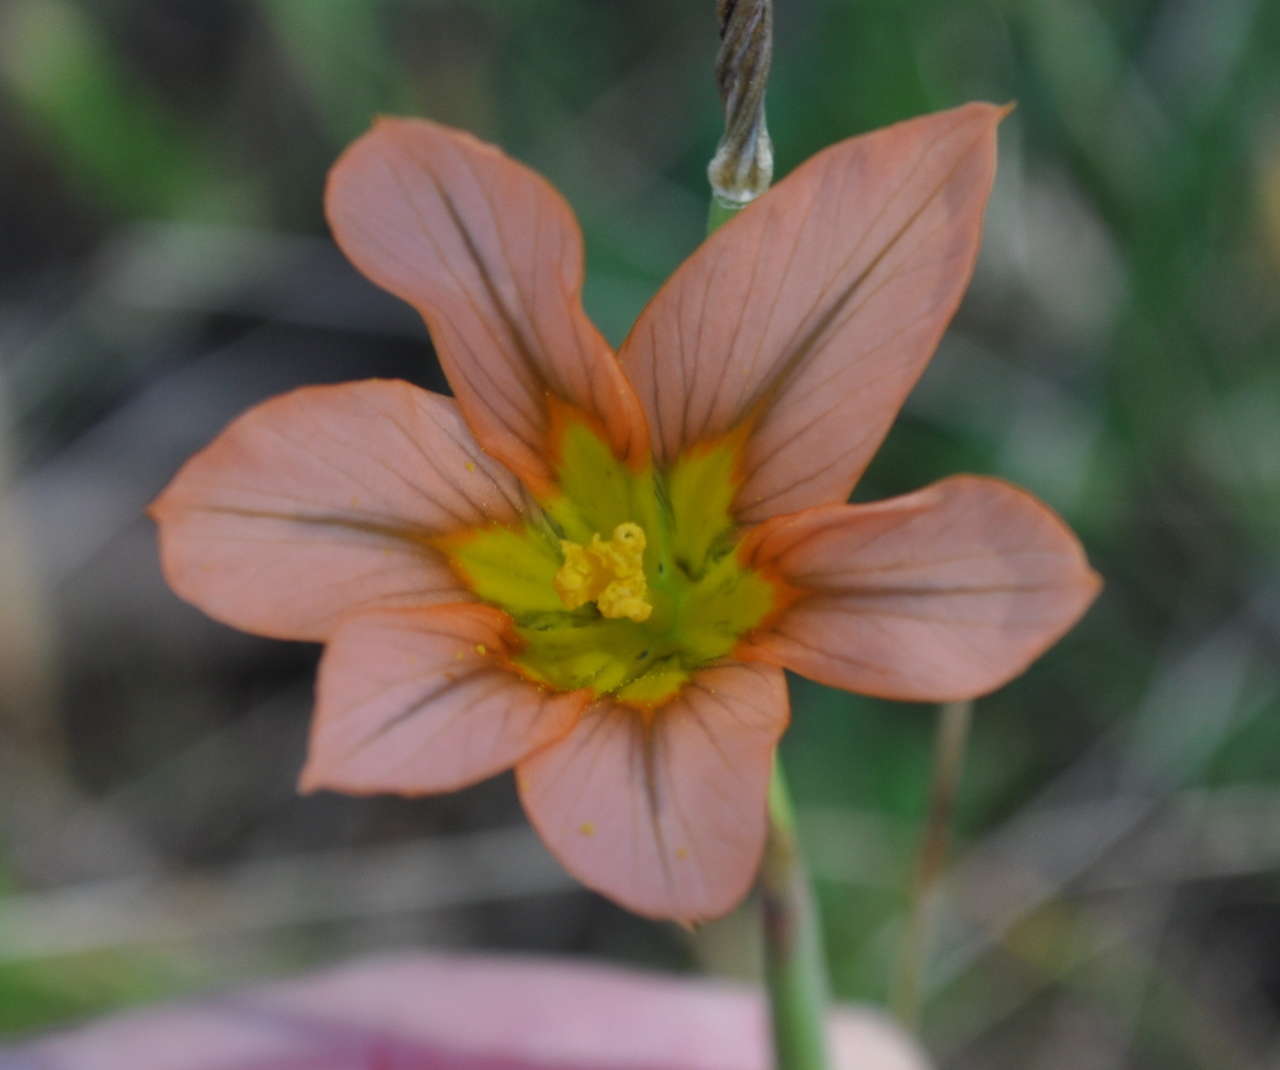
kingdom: Plantae
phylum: Tracheophyta
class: Liliopsida
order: Asparagales
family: Iridaceae
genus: Moraea
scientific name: Moraea flaccida
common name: One-leaf cape-tulip
